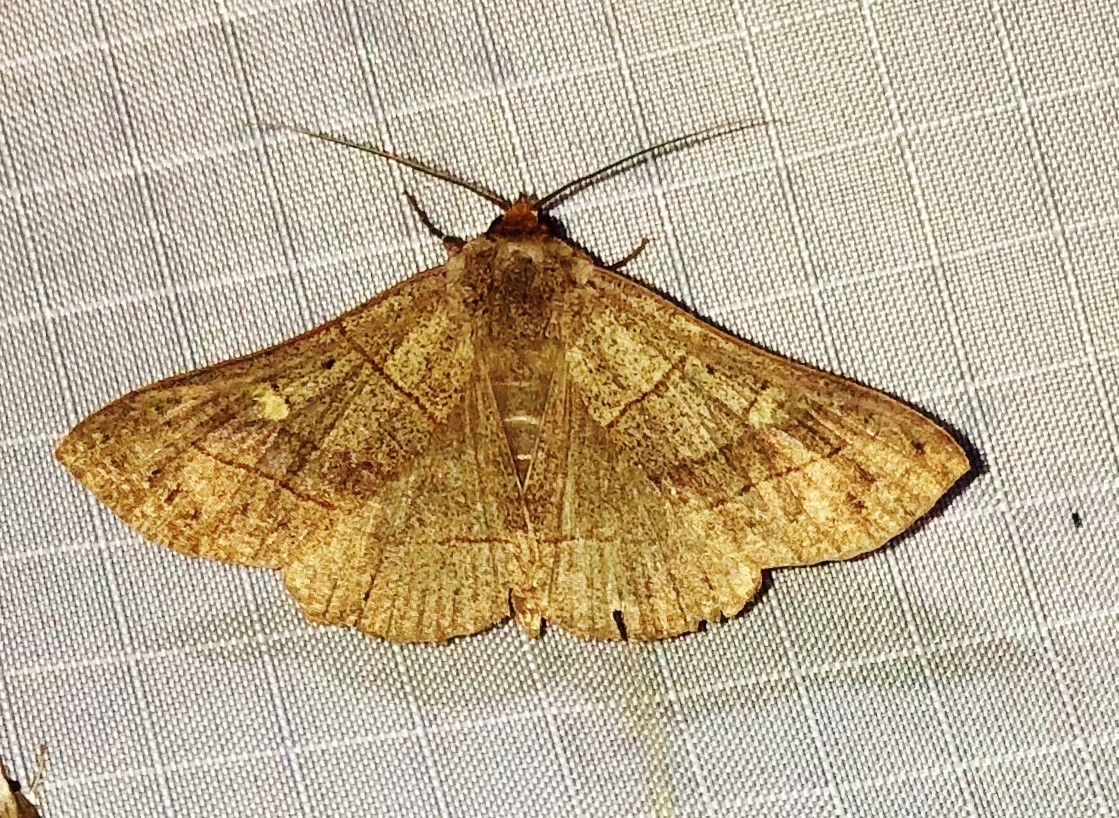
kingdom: Animalia
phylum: Arthropoda
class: Insecta
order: Lepidoptera
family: Erebidae
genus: Panopoda
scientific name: Panopoda rufimargo
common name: Red-lined panopoda moth
